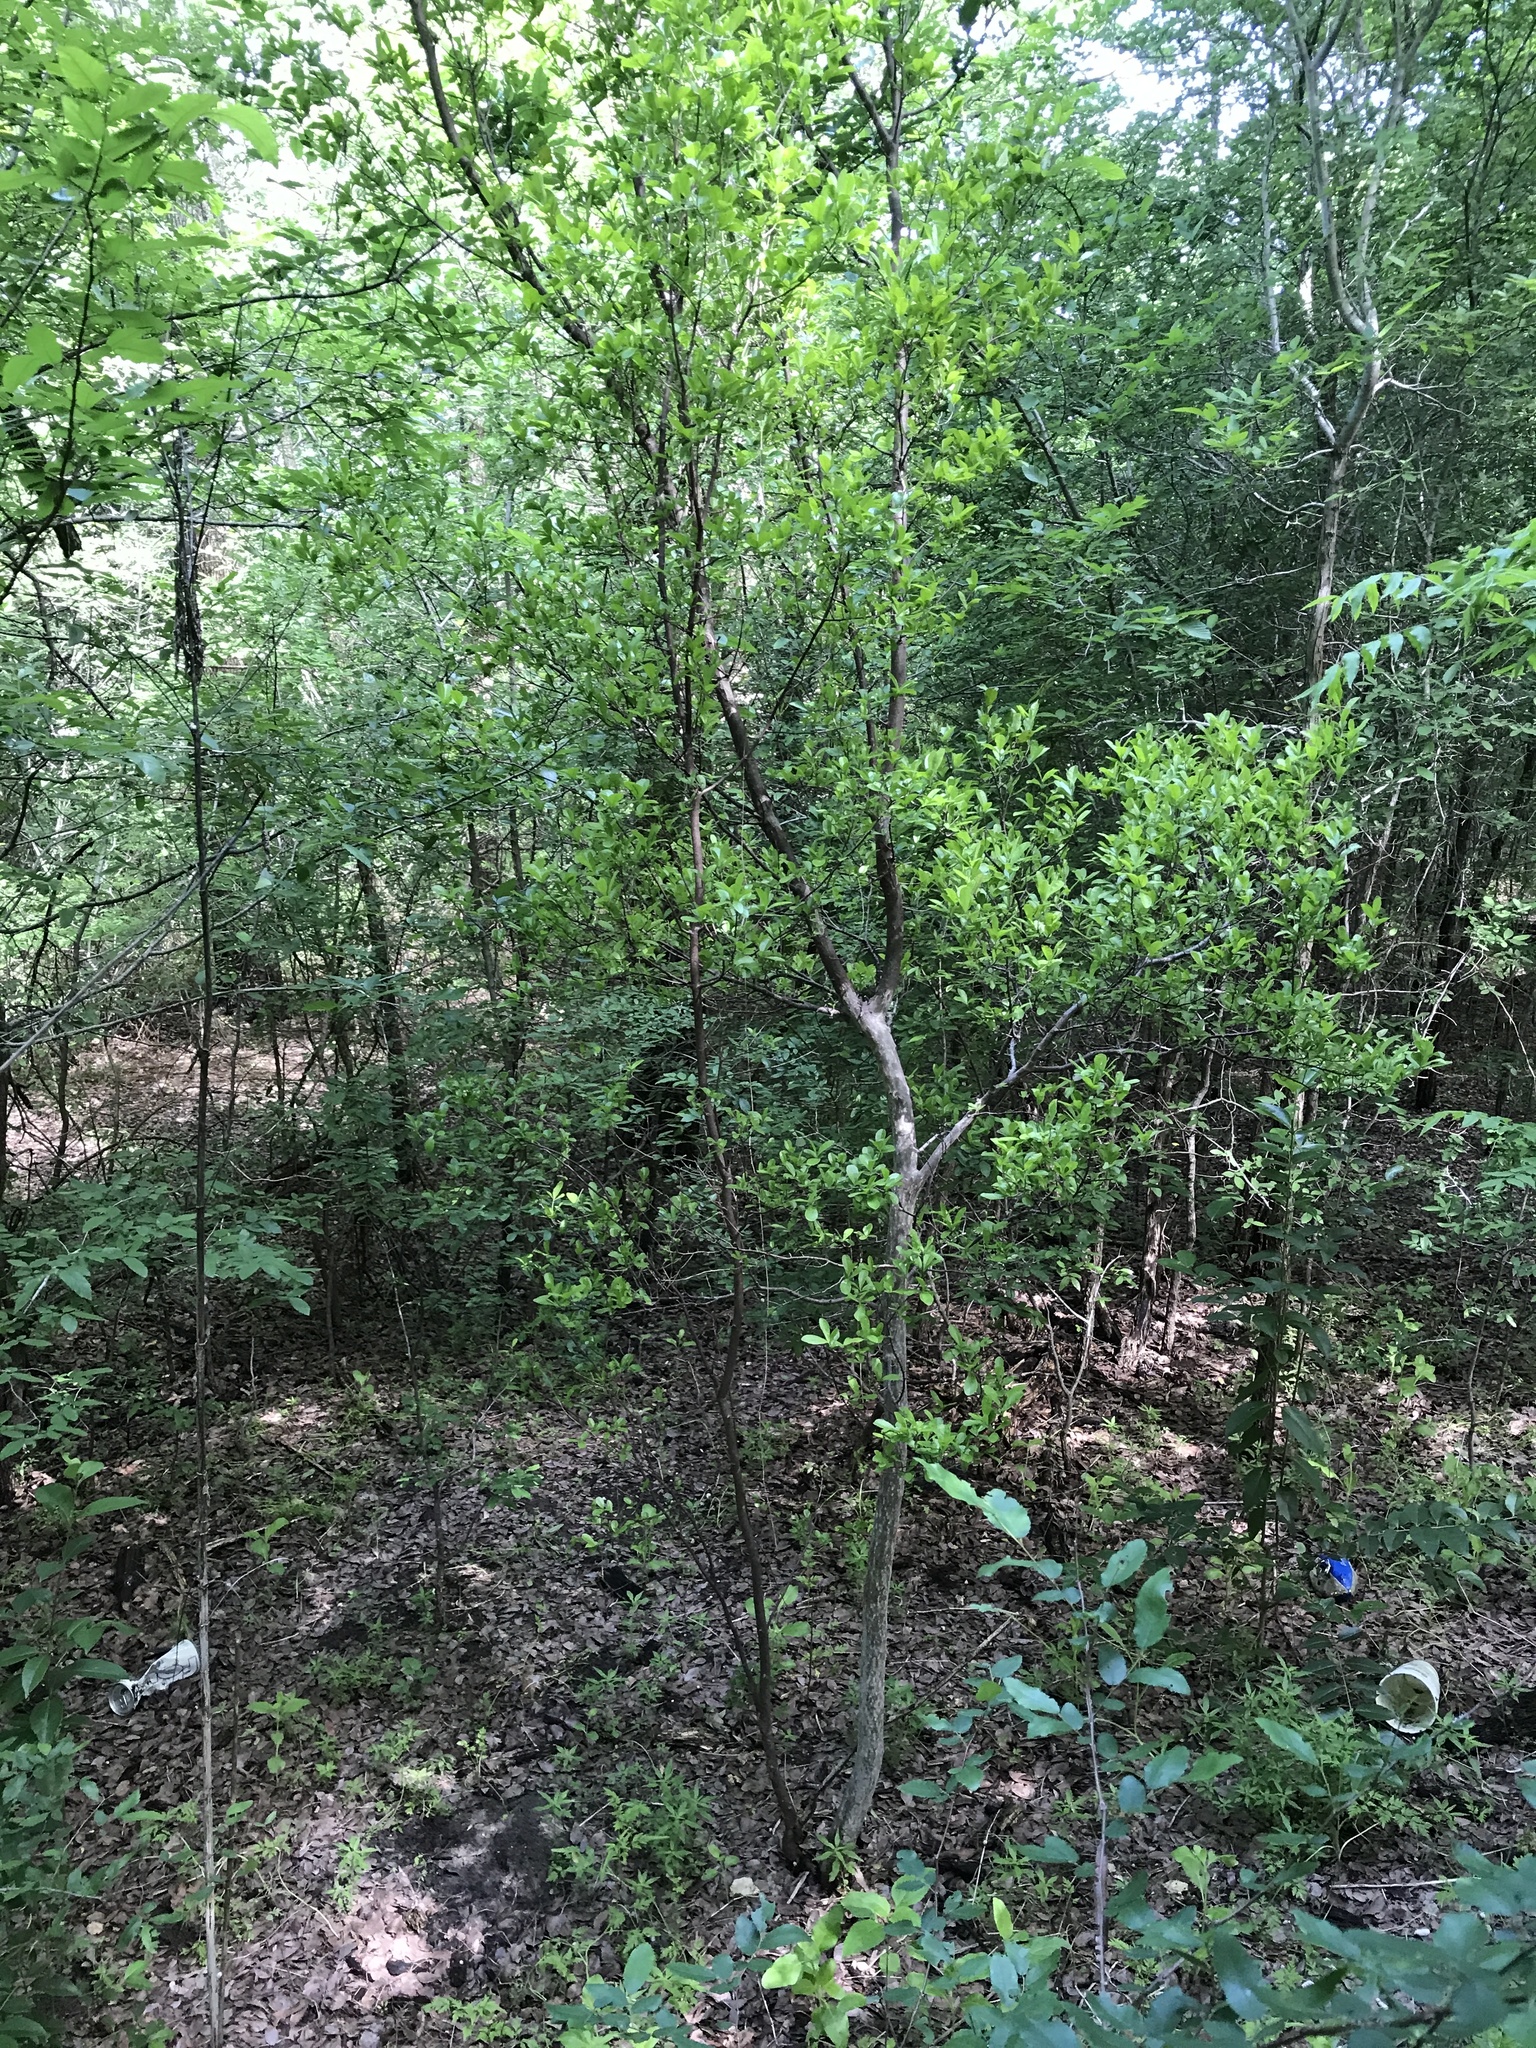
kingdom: Plantae
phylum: Tracheophyta
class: Magnoliopsida
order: Ericales
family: Ebenaceae
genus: Diospyros
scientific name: Diospyros texana
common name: Texas persimmon
